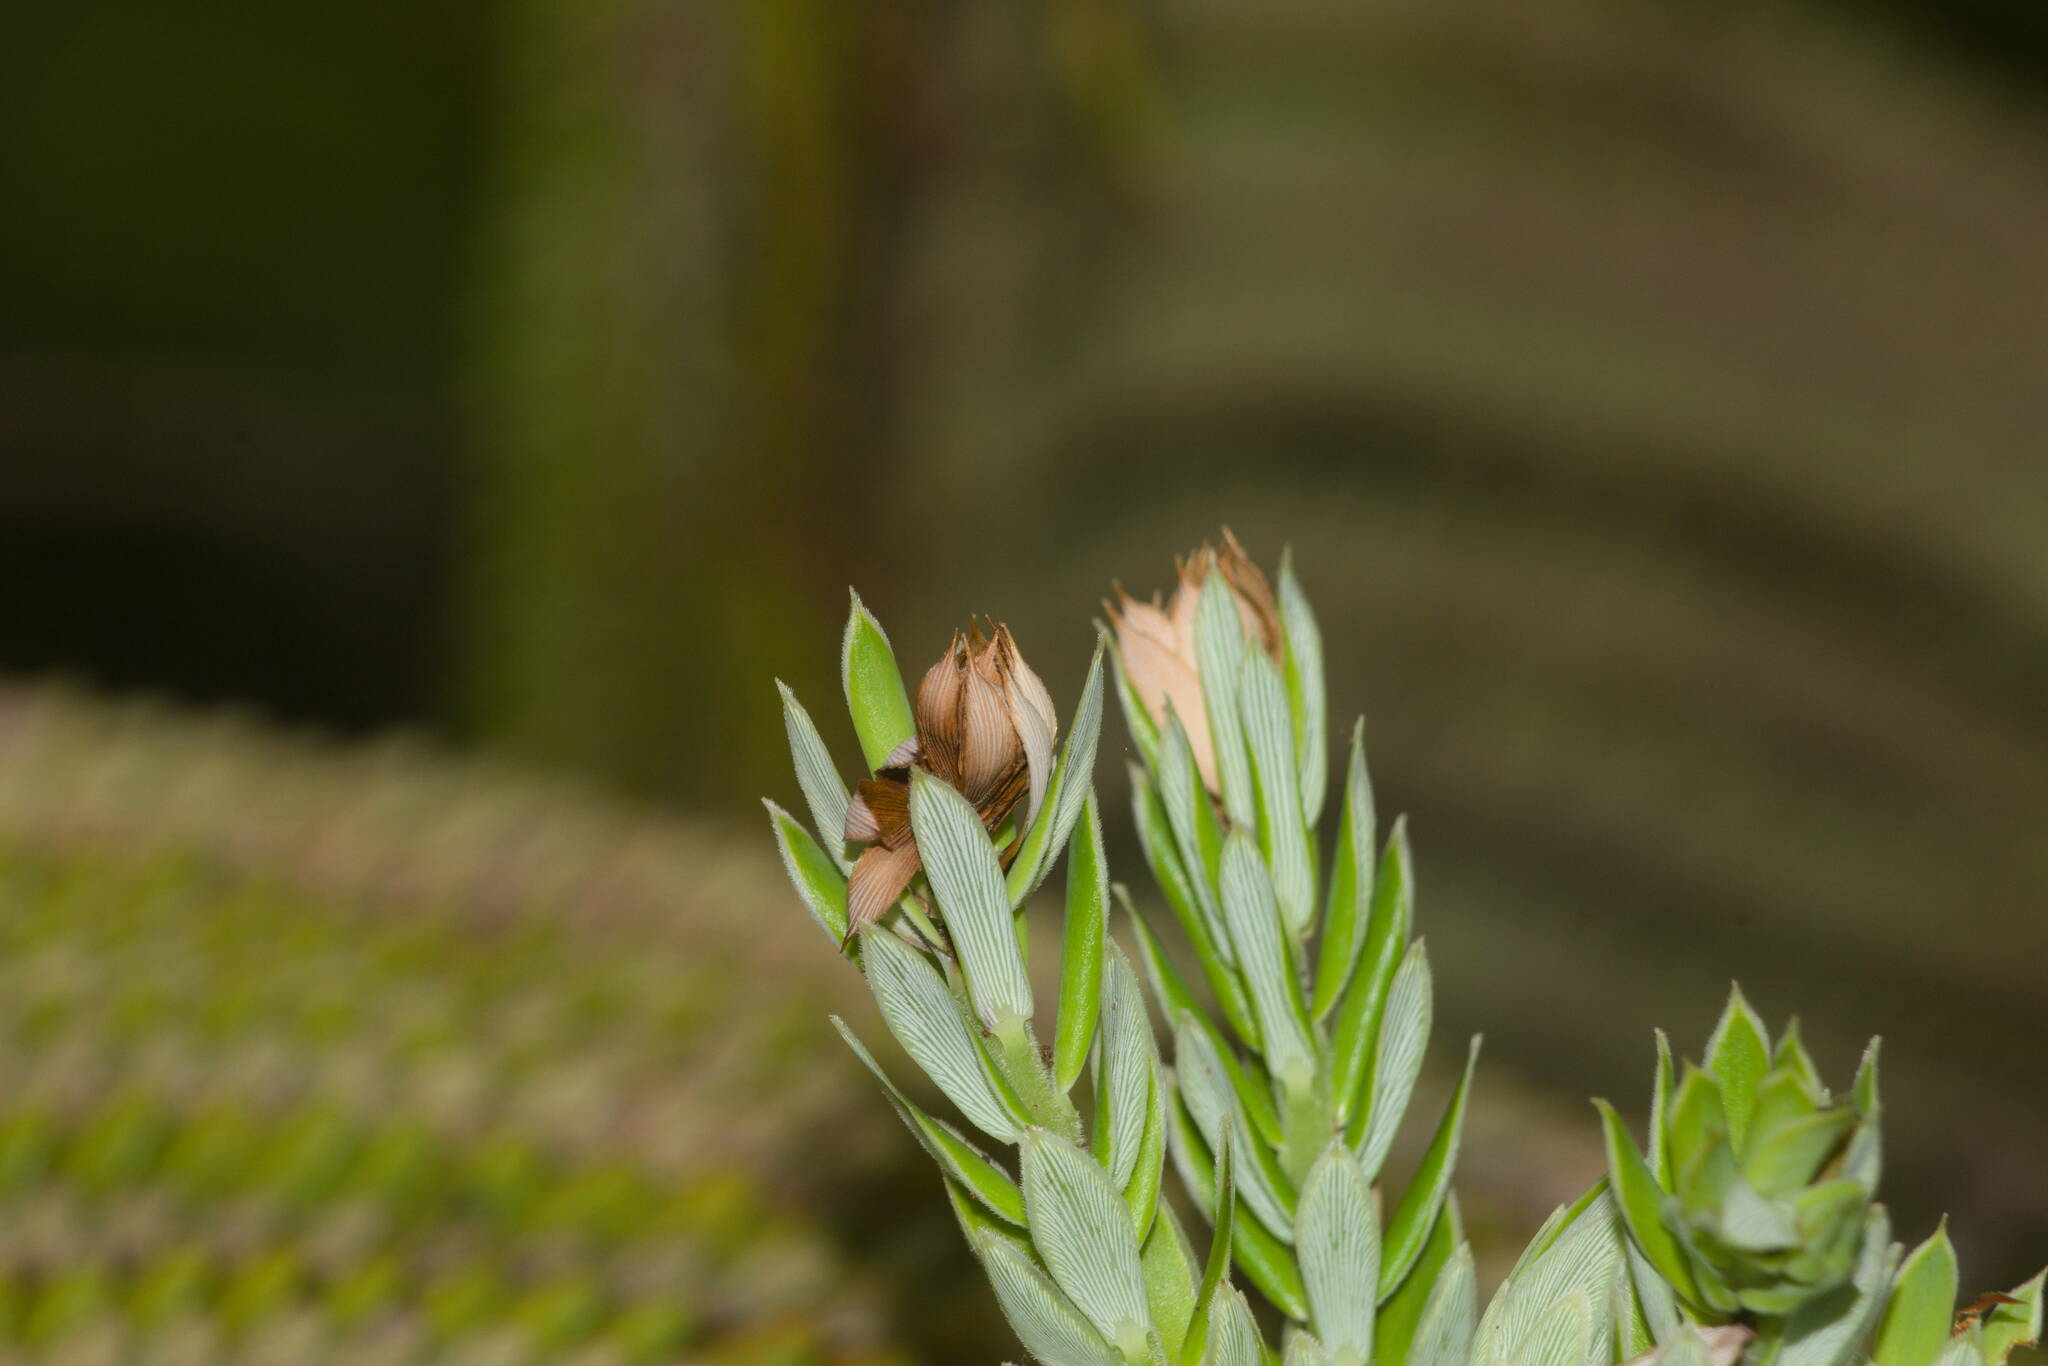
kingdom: Animalia
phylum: Arthropoda
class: Insecta
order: Lepidoptera
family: Carposinidae
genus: Carposina
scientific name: Carposina gracillima
